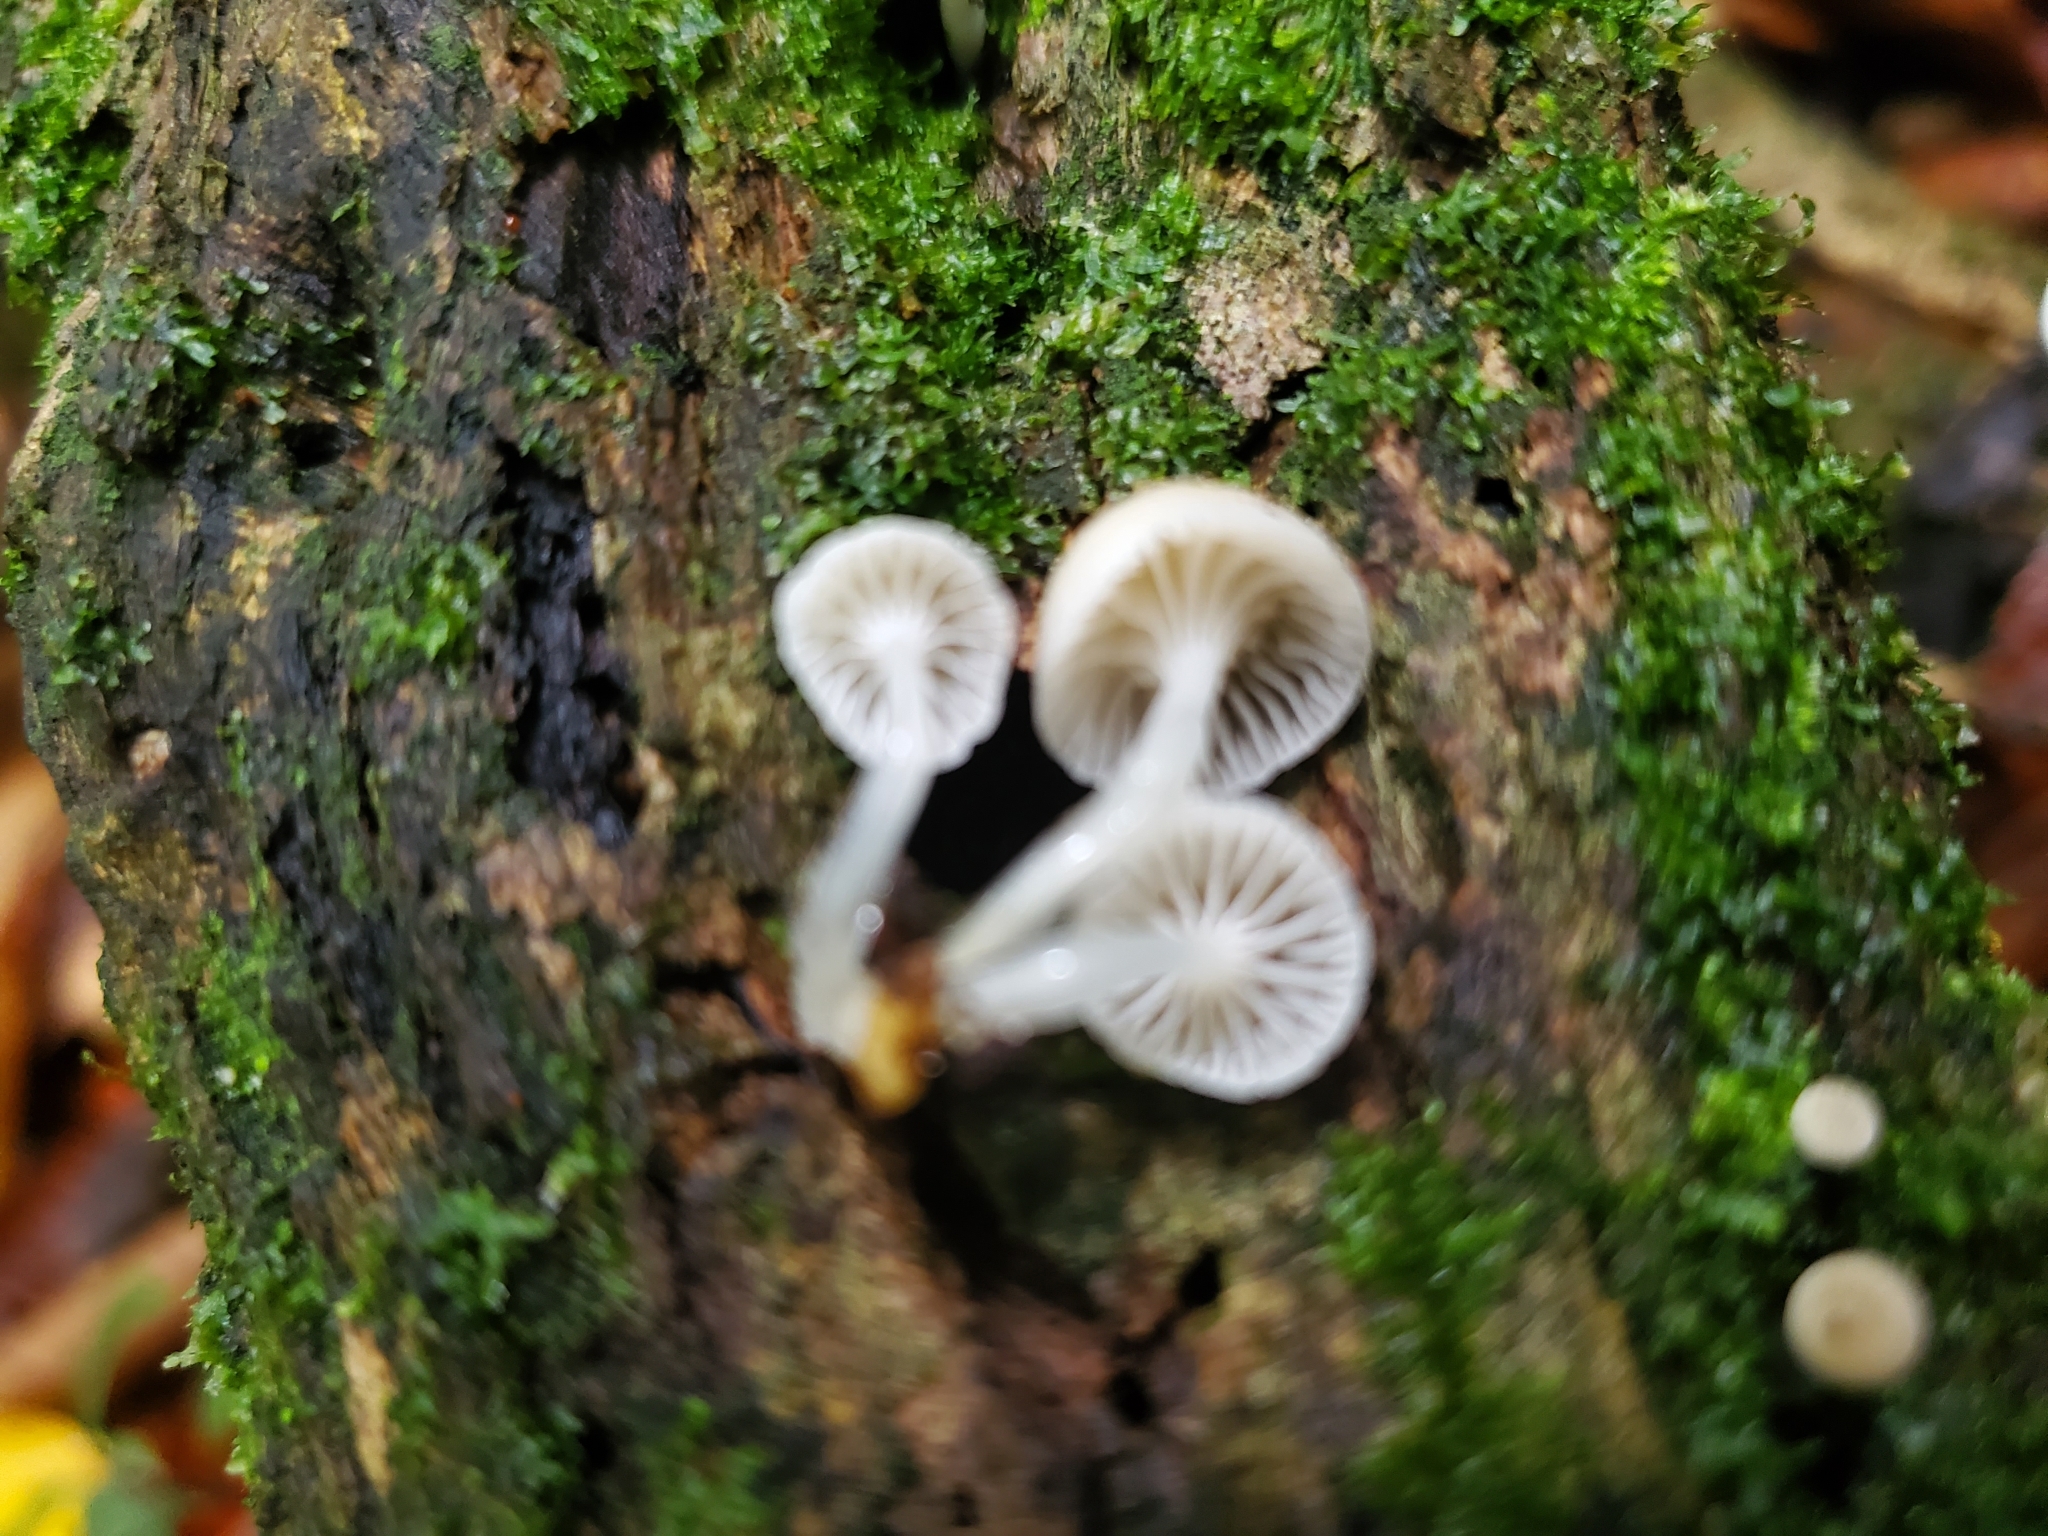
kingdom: Fungi
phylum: Basidiomycota
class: Agaricomycetes
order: Agaricales
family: Mycenaceae
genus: Roridomyces
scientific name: Roridomyces austrororidus
